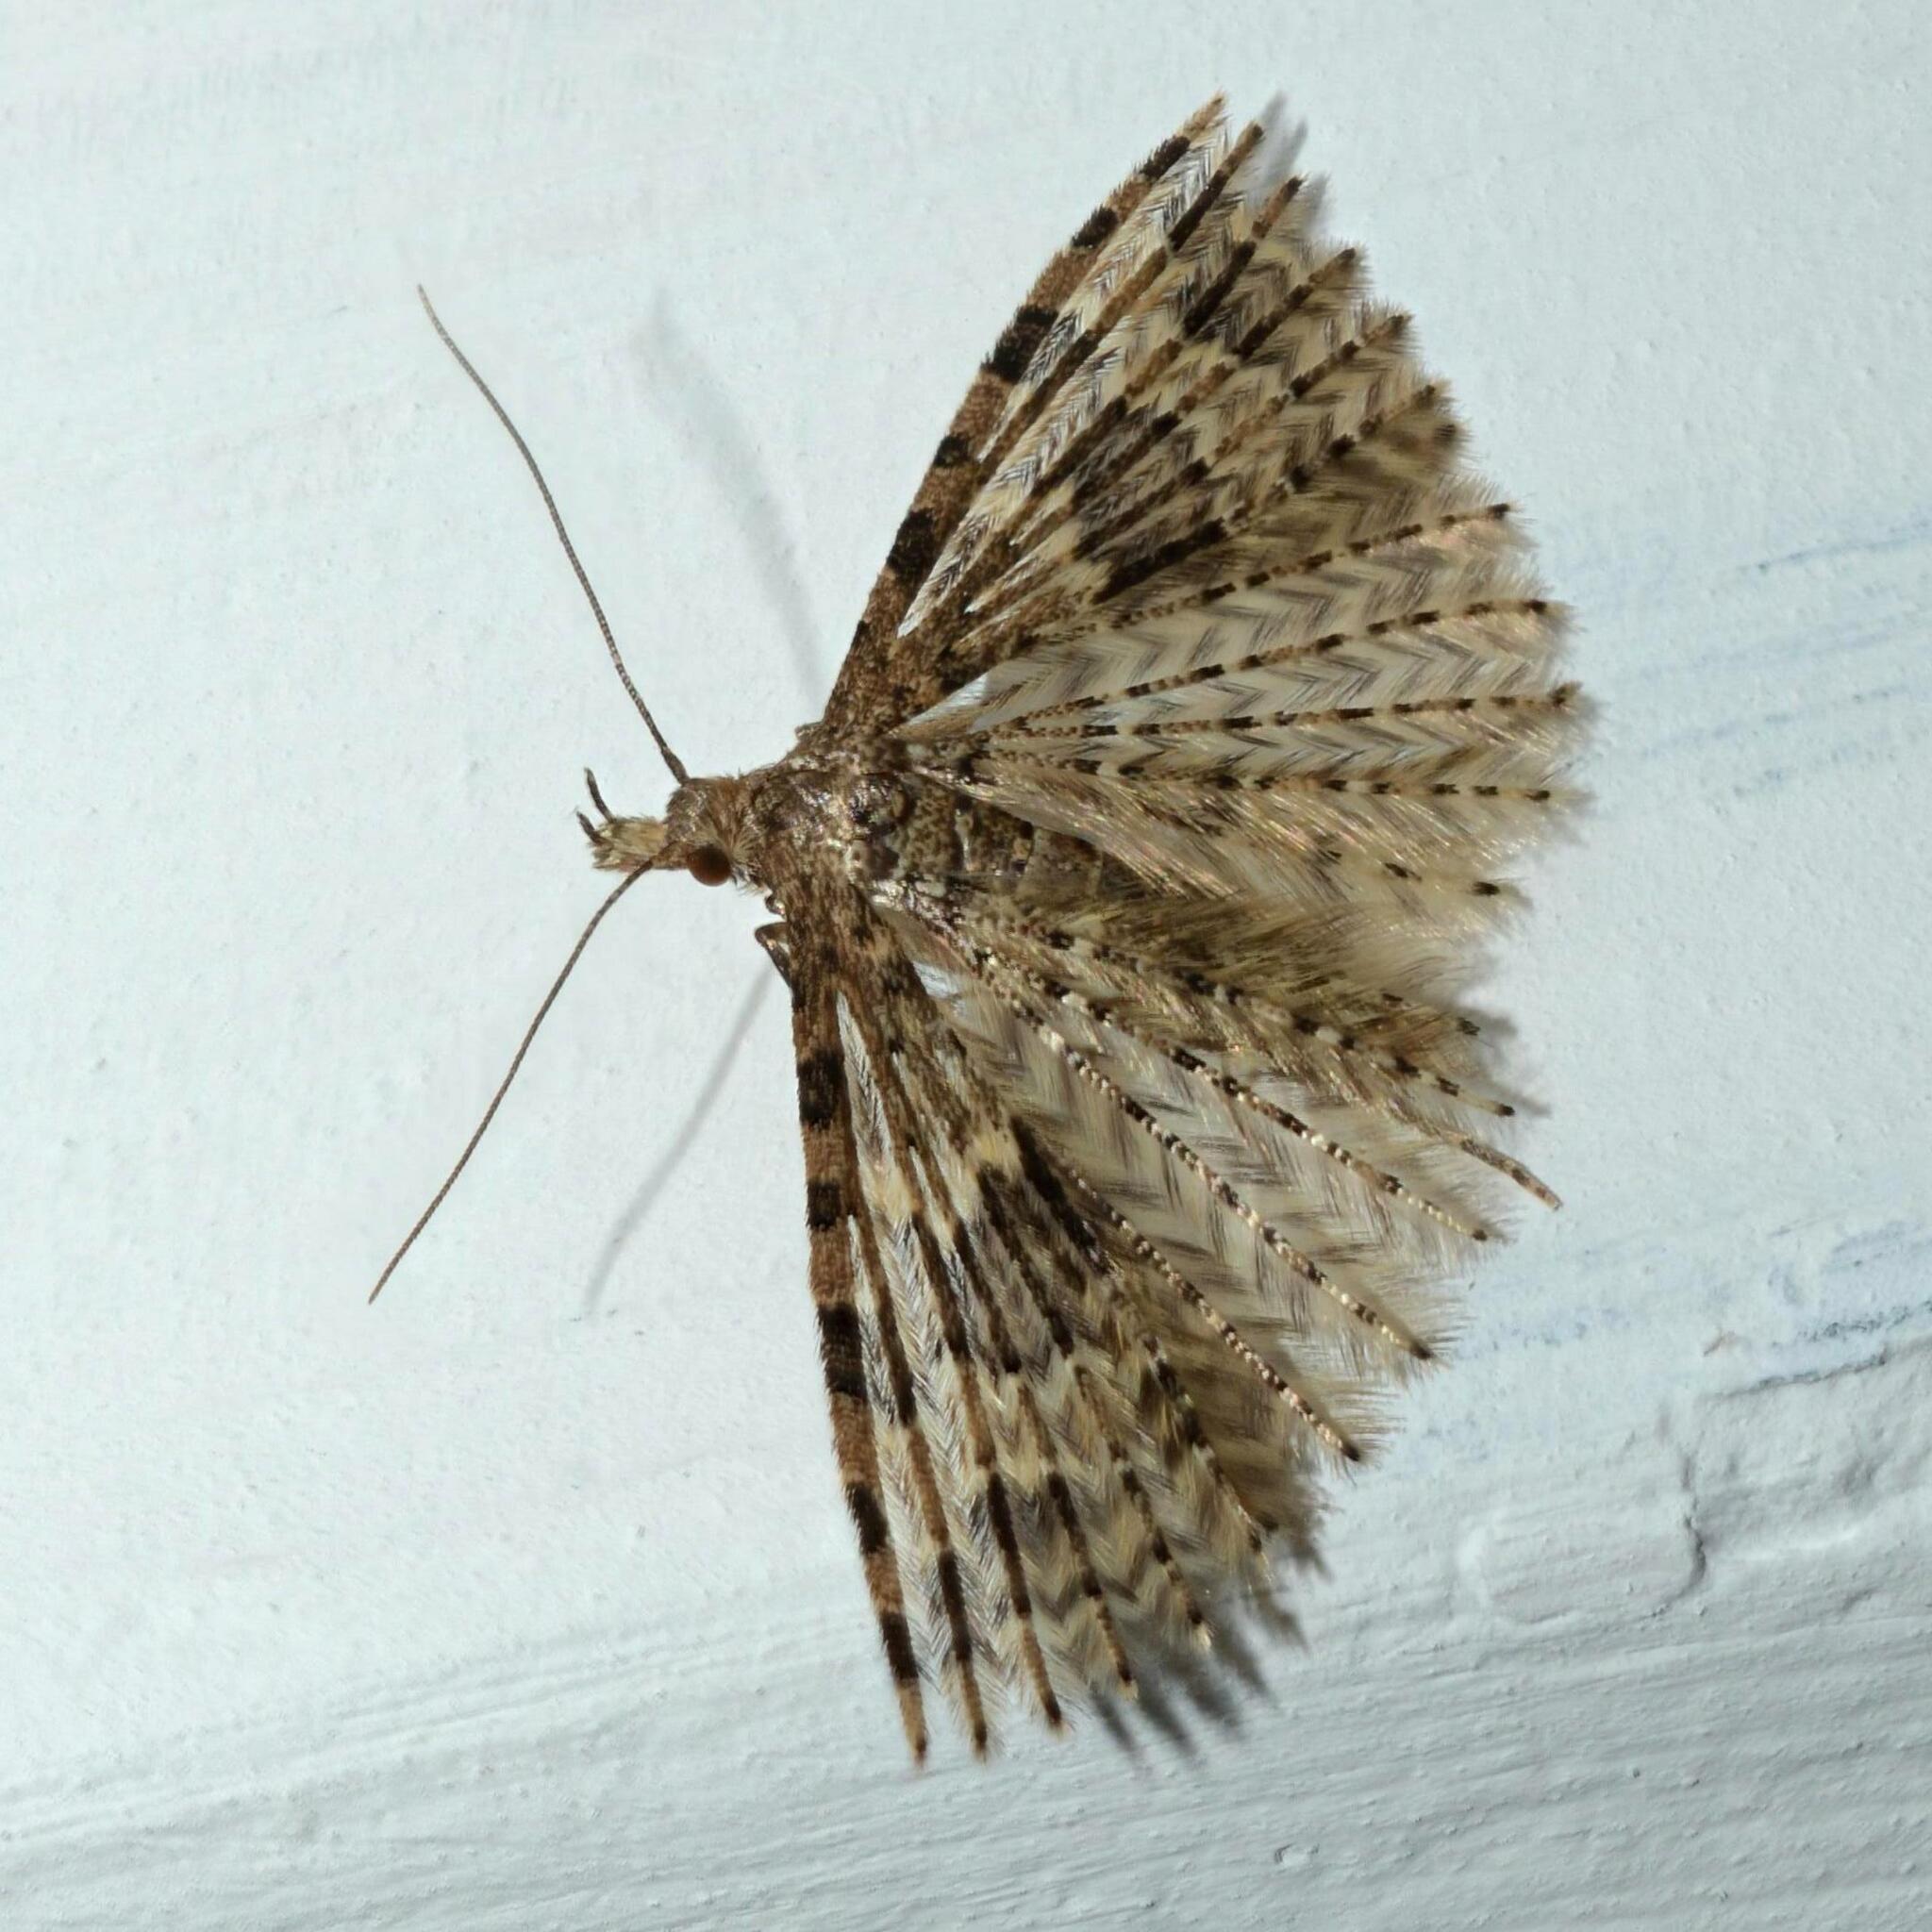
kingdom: Animalia
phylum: Arthropoda
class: Insecta
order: Lepidoptera
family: Alucitidae
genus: Alucita
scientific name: Alucita hexadactyla
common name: Twenty-plume moth
